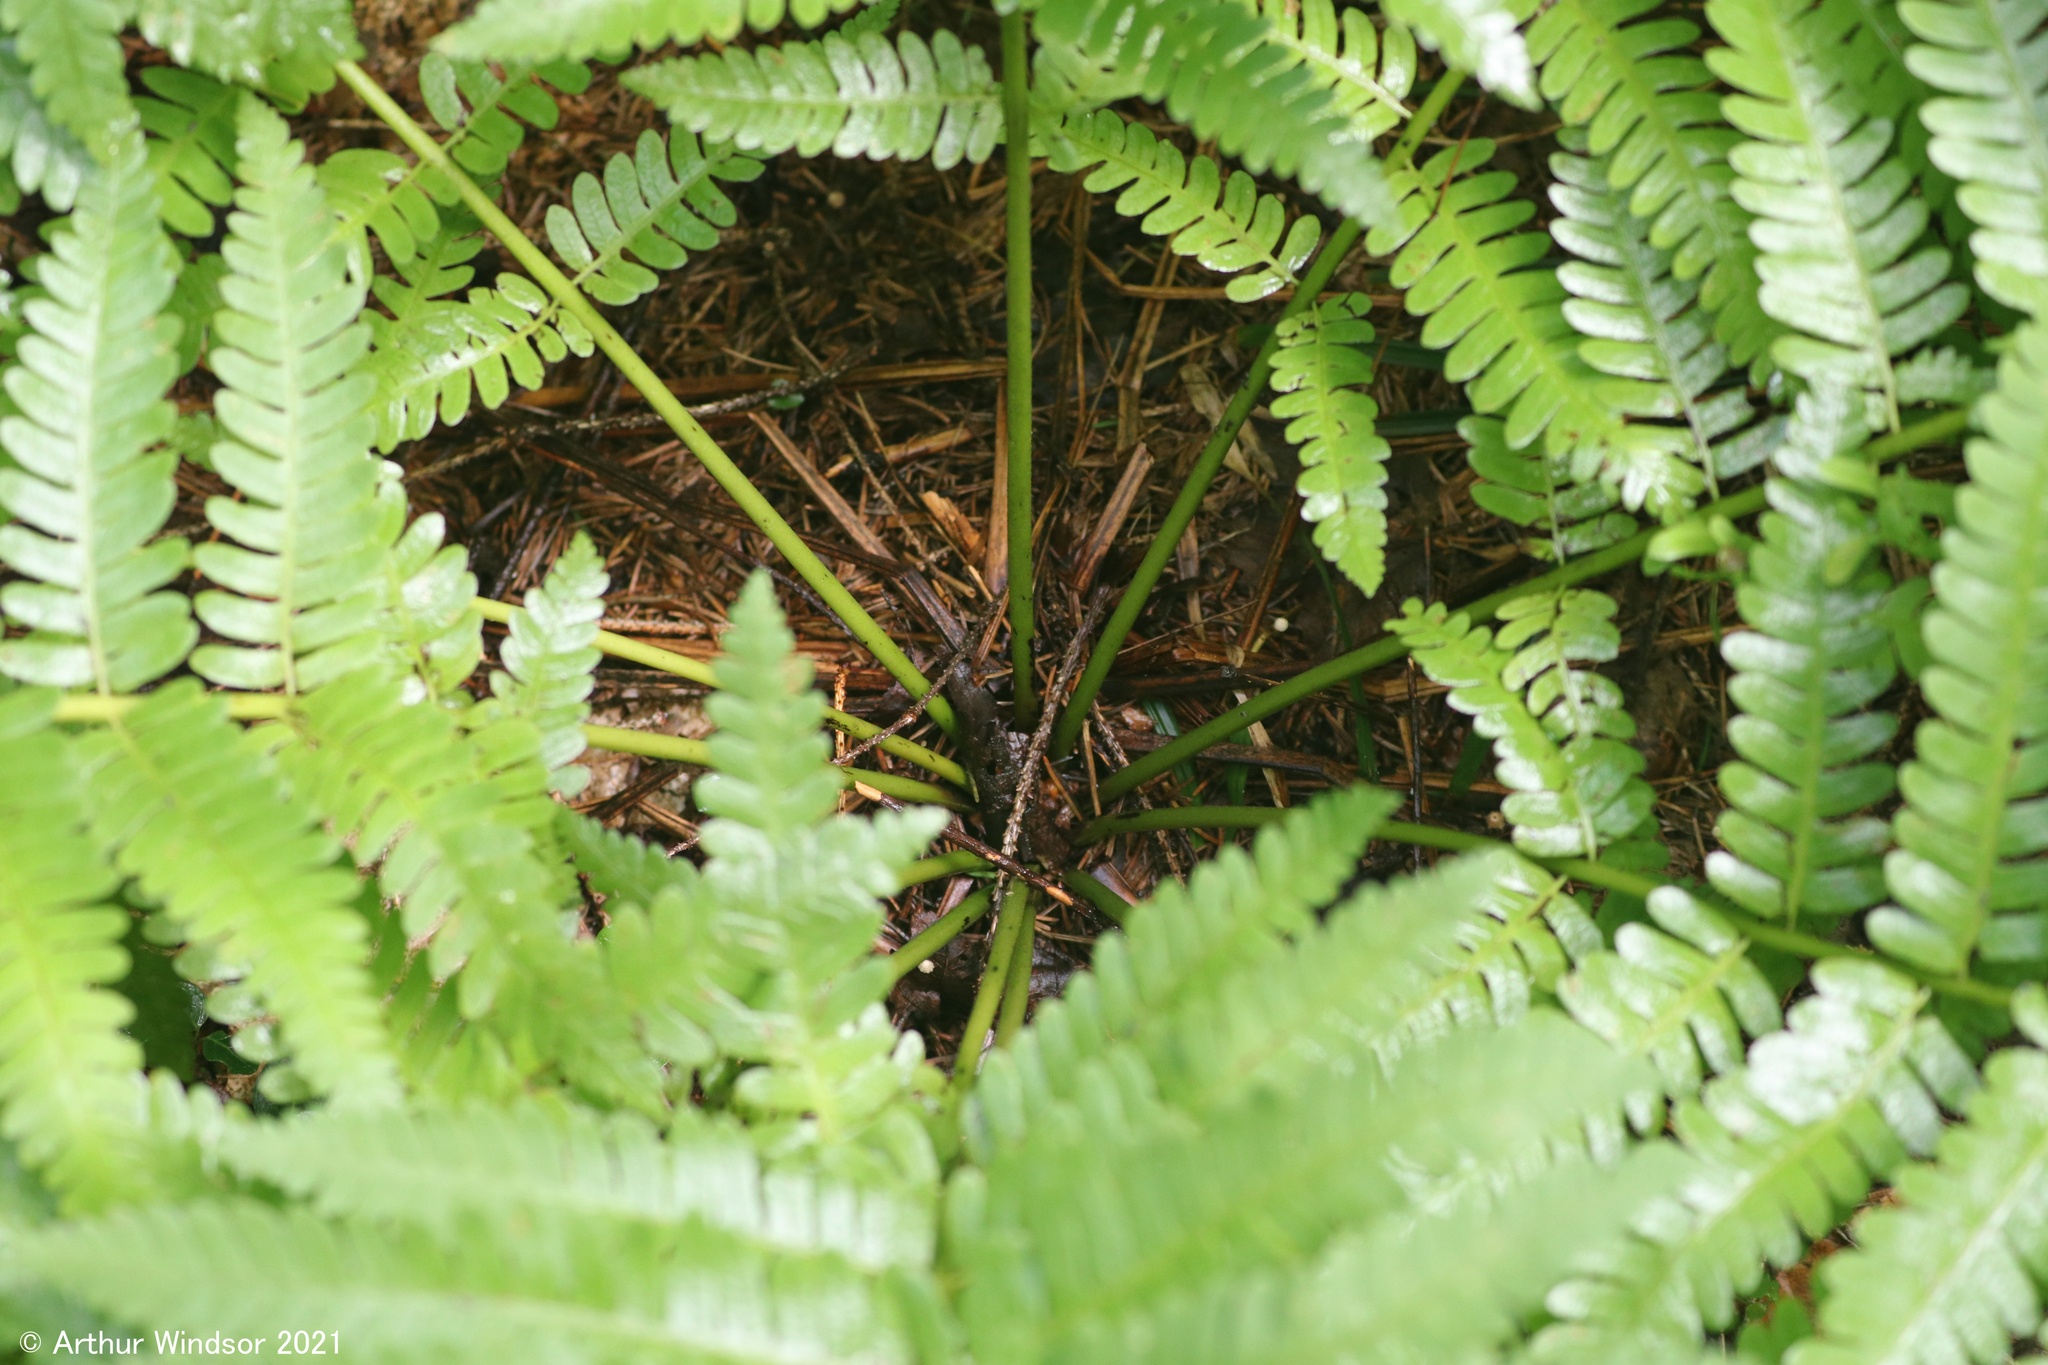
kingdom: Plantae
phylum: Tracheophyta
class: Polypodiopsida
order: Osmundales
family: Osmundaceae
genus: Claytosmunda
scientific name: Claytosmunda claytoniana
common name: Clayton's fern
